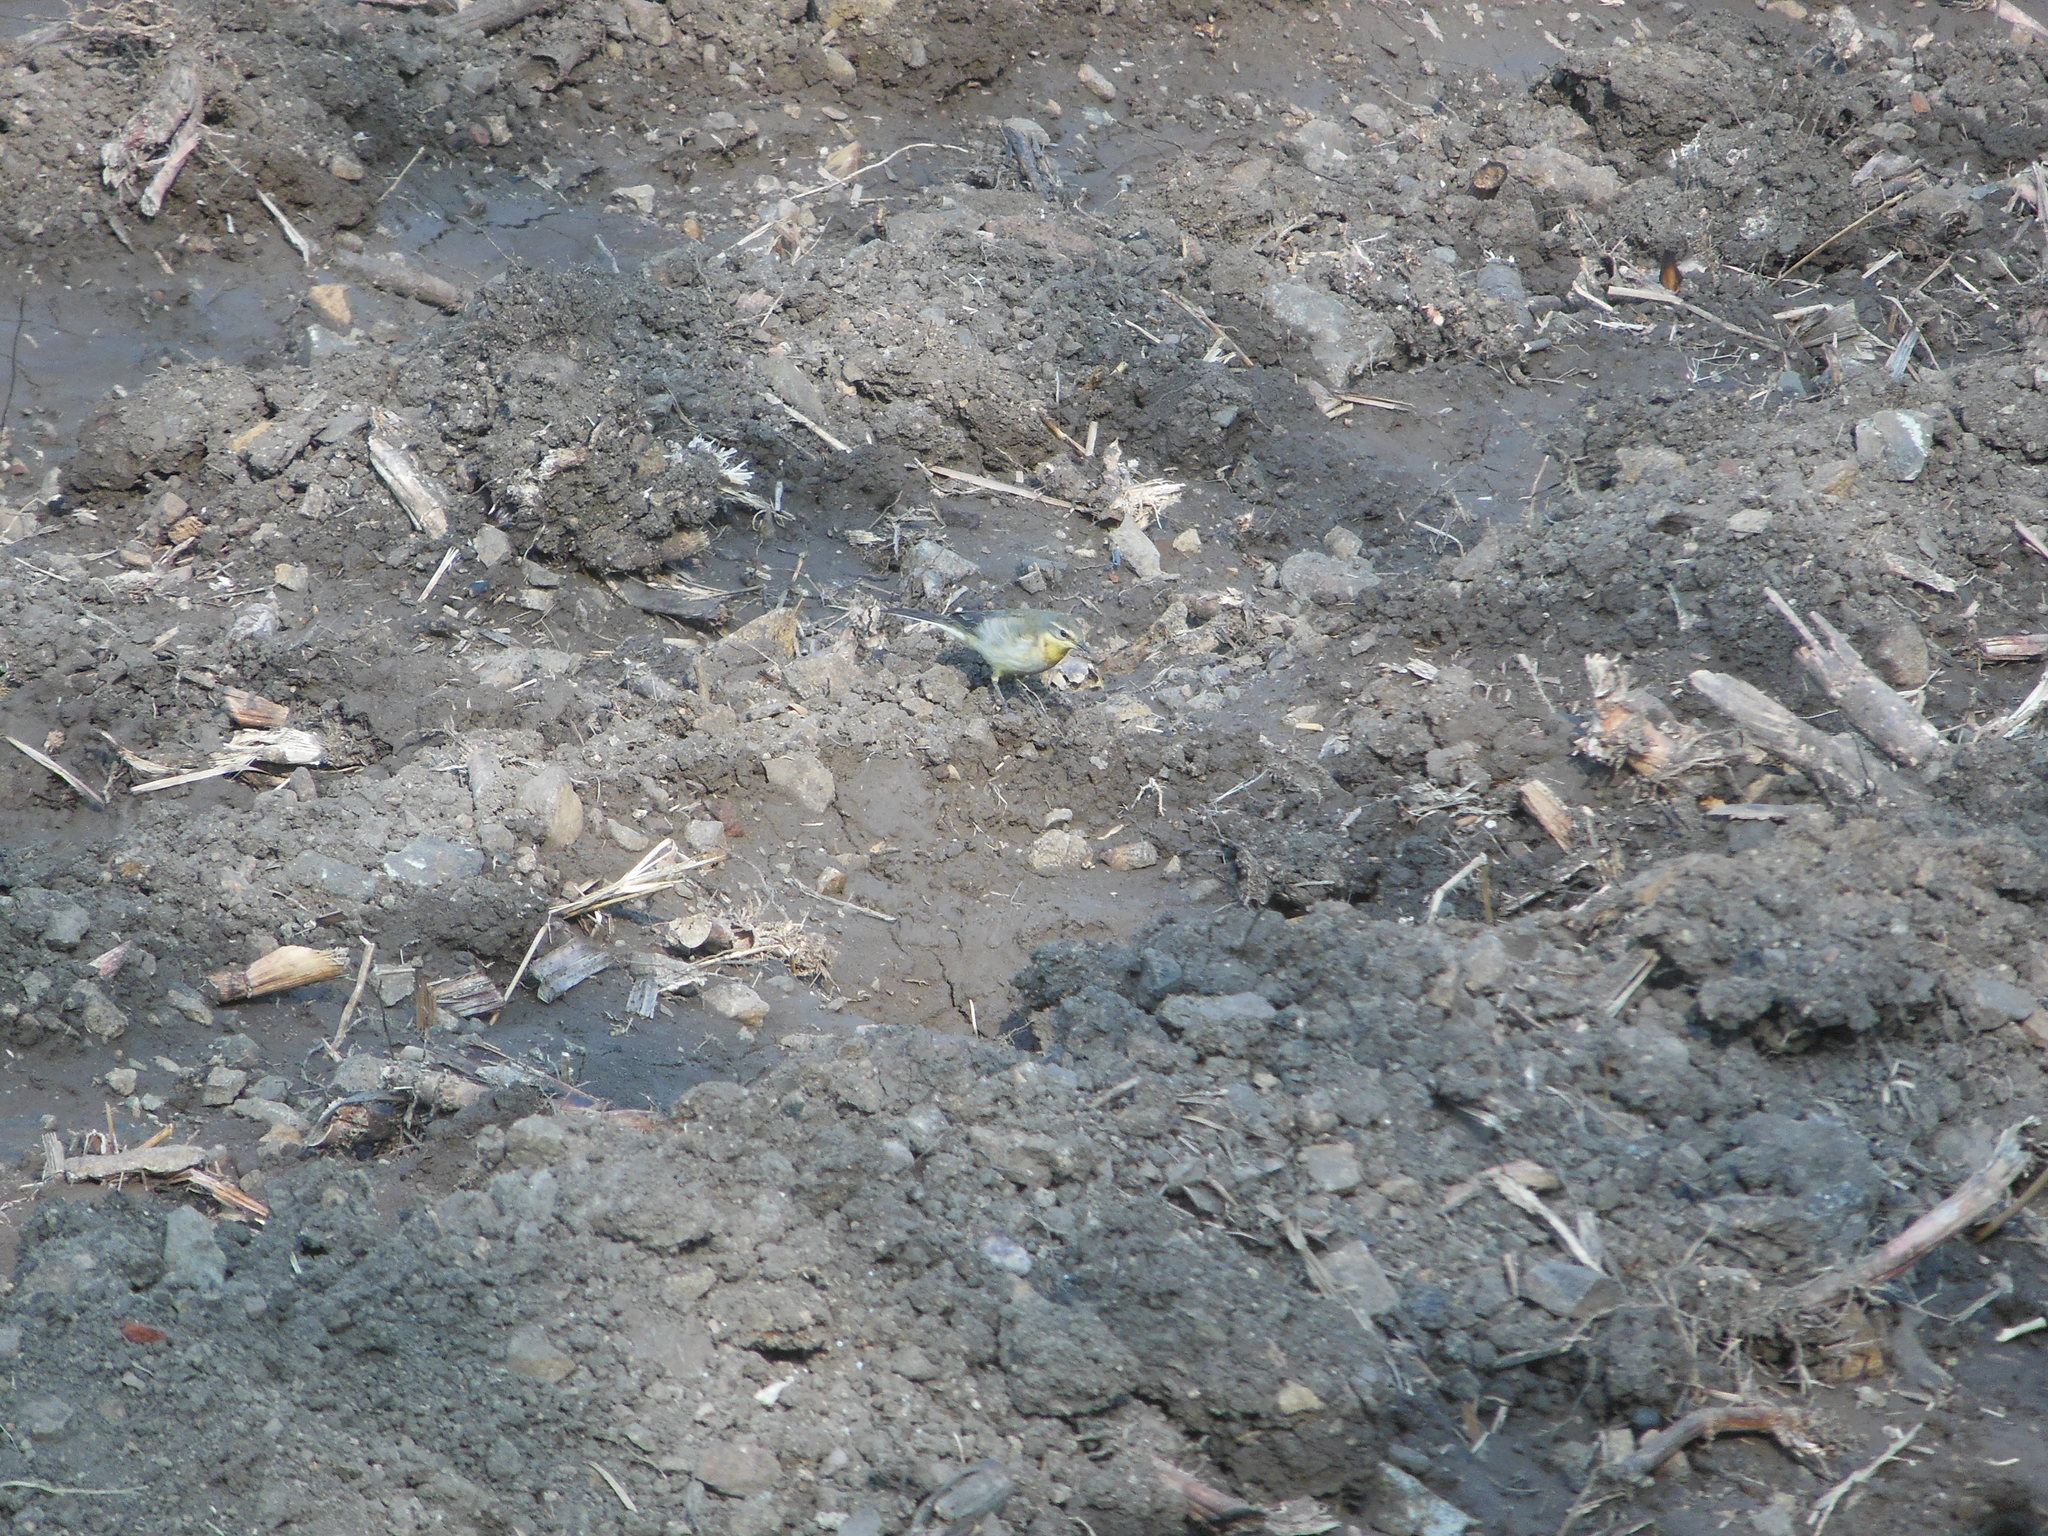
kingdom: Animalia
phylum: Chordata
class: Aves
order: Passeriformes
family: Motacillidae
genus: Motacilla
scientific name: Motacilla flava
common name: Western yellow wagtail
